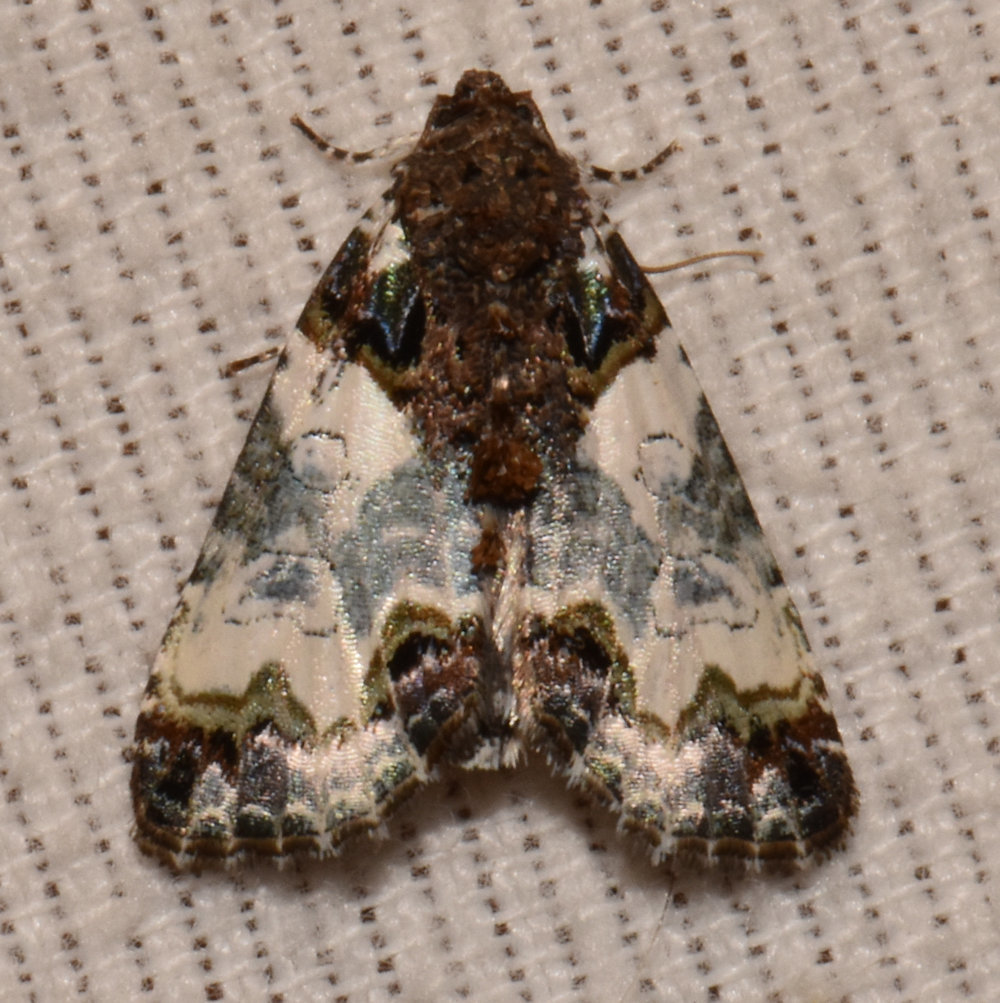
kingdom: Animalia
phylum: Arthropoda
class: Insecta
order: Lepidoptera
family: Noctuidae
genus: Cerma
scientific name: Cerma cerintha
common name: Tufted bird-dropping moth
